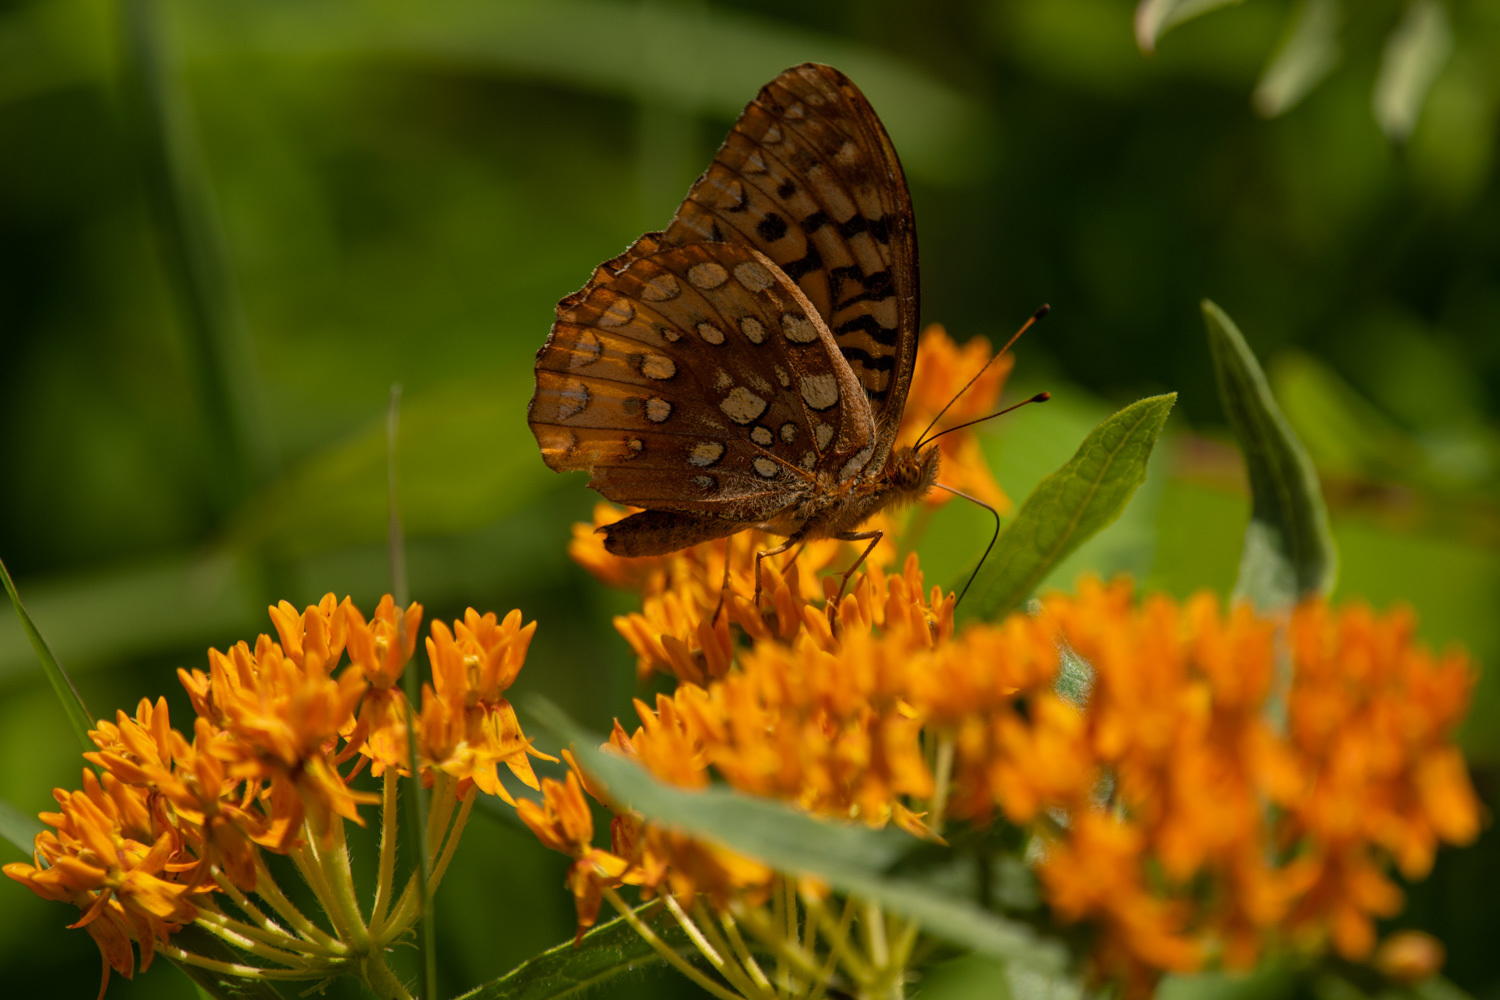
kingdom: Animalia
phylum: Arthropoda
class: Insecta
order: Lepidoptera
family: Nymphalidae
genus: Speyeria
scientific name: Speyeria cybele
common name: Great spangled fritillary
